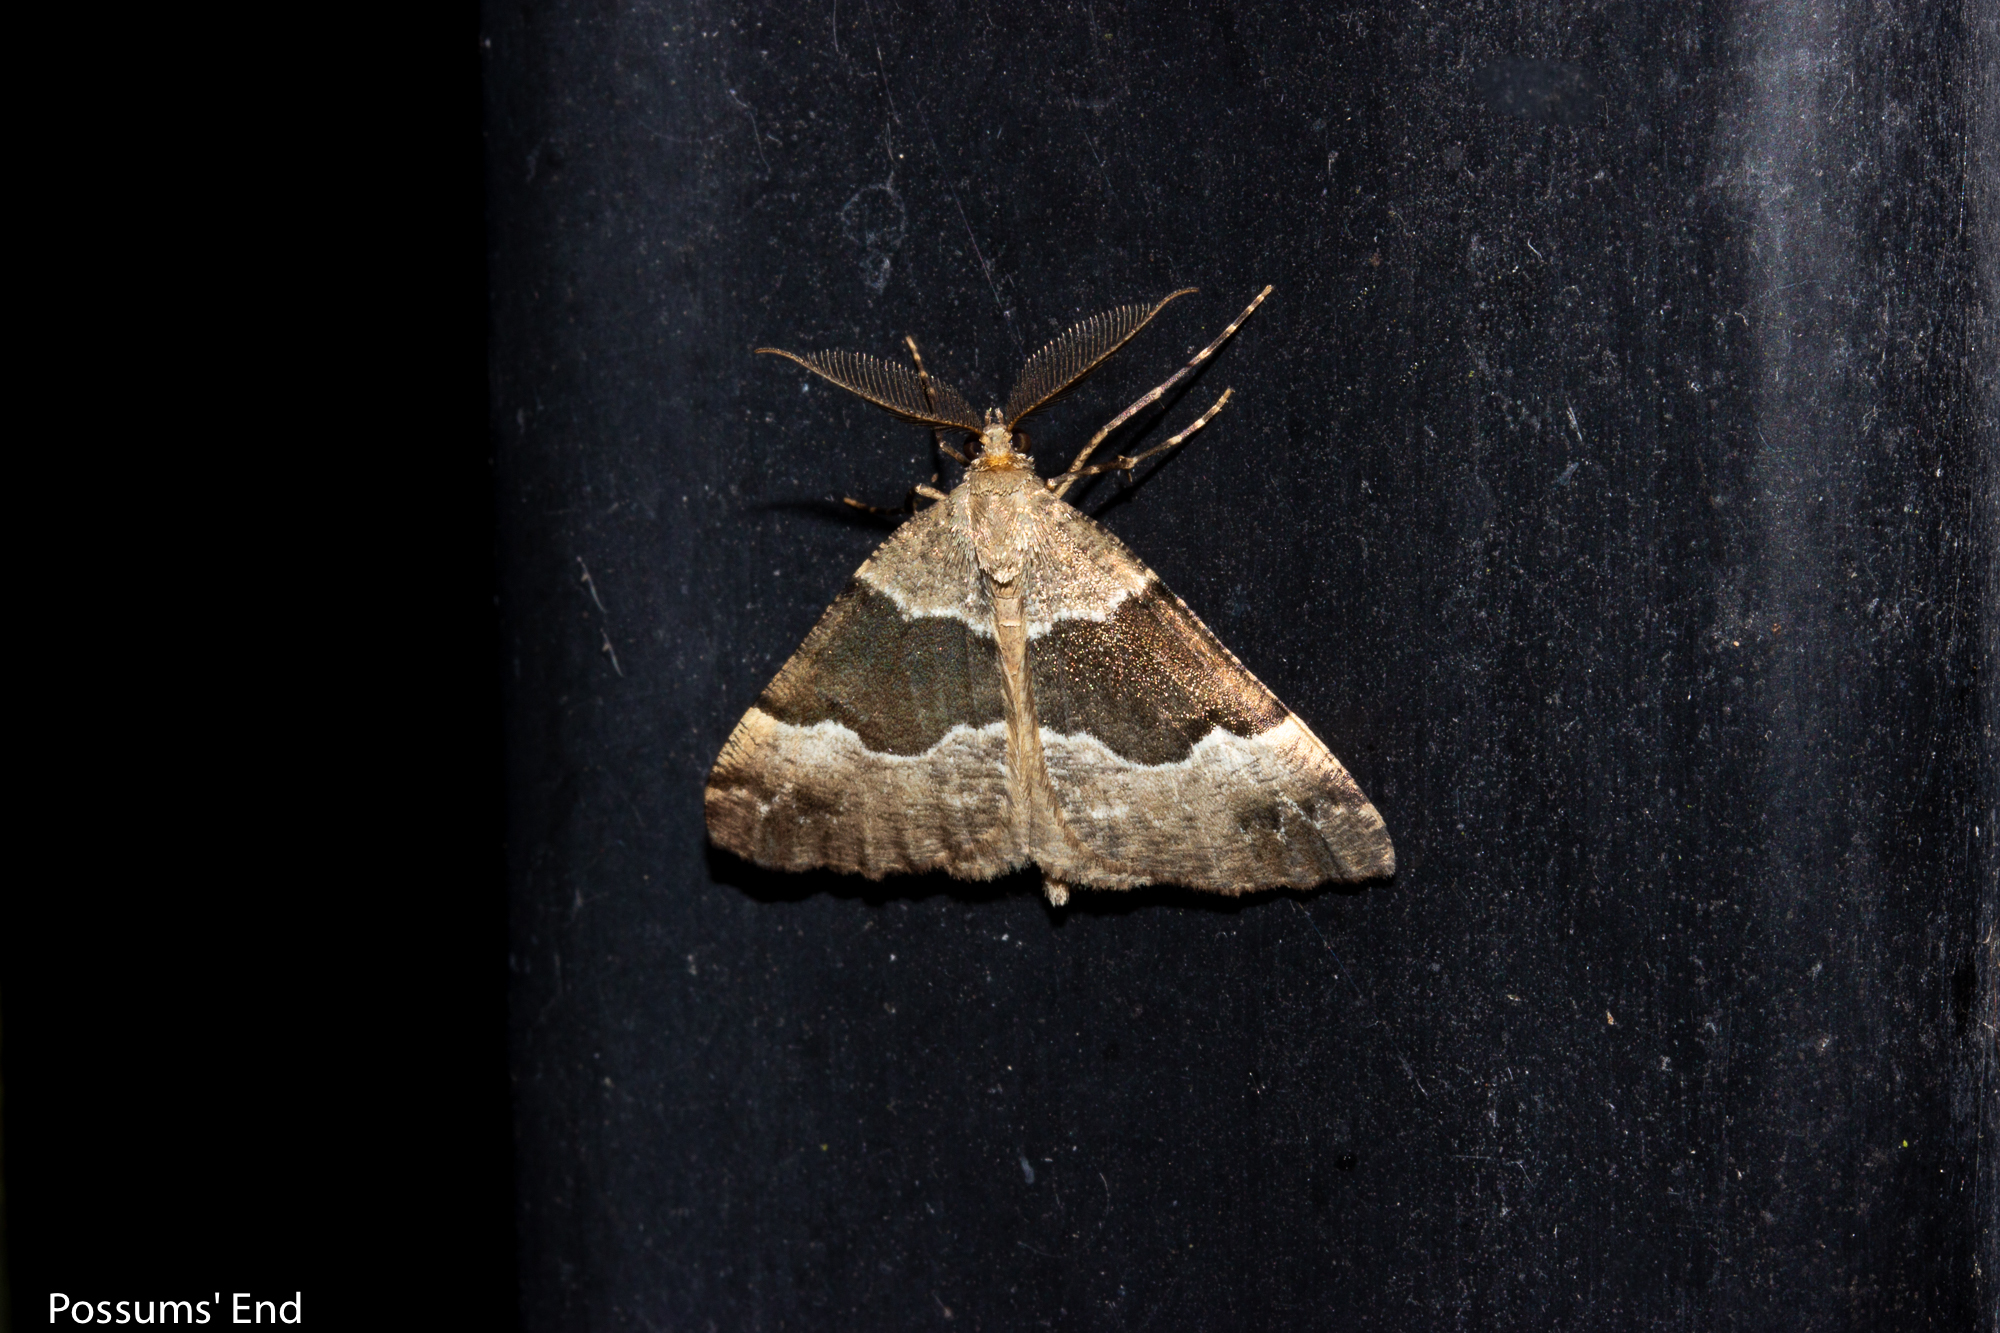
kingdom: Animalia
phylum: Arthropoda
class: Insecta
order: Lepidoptera
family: Geometridae
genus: Pseudocoremia
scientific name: Pseudocoremia
